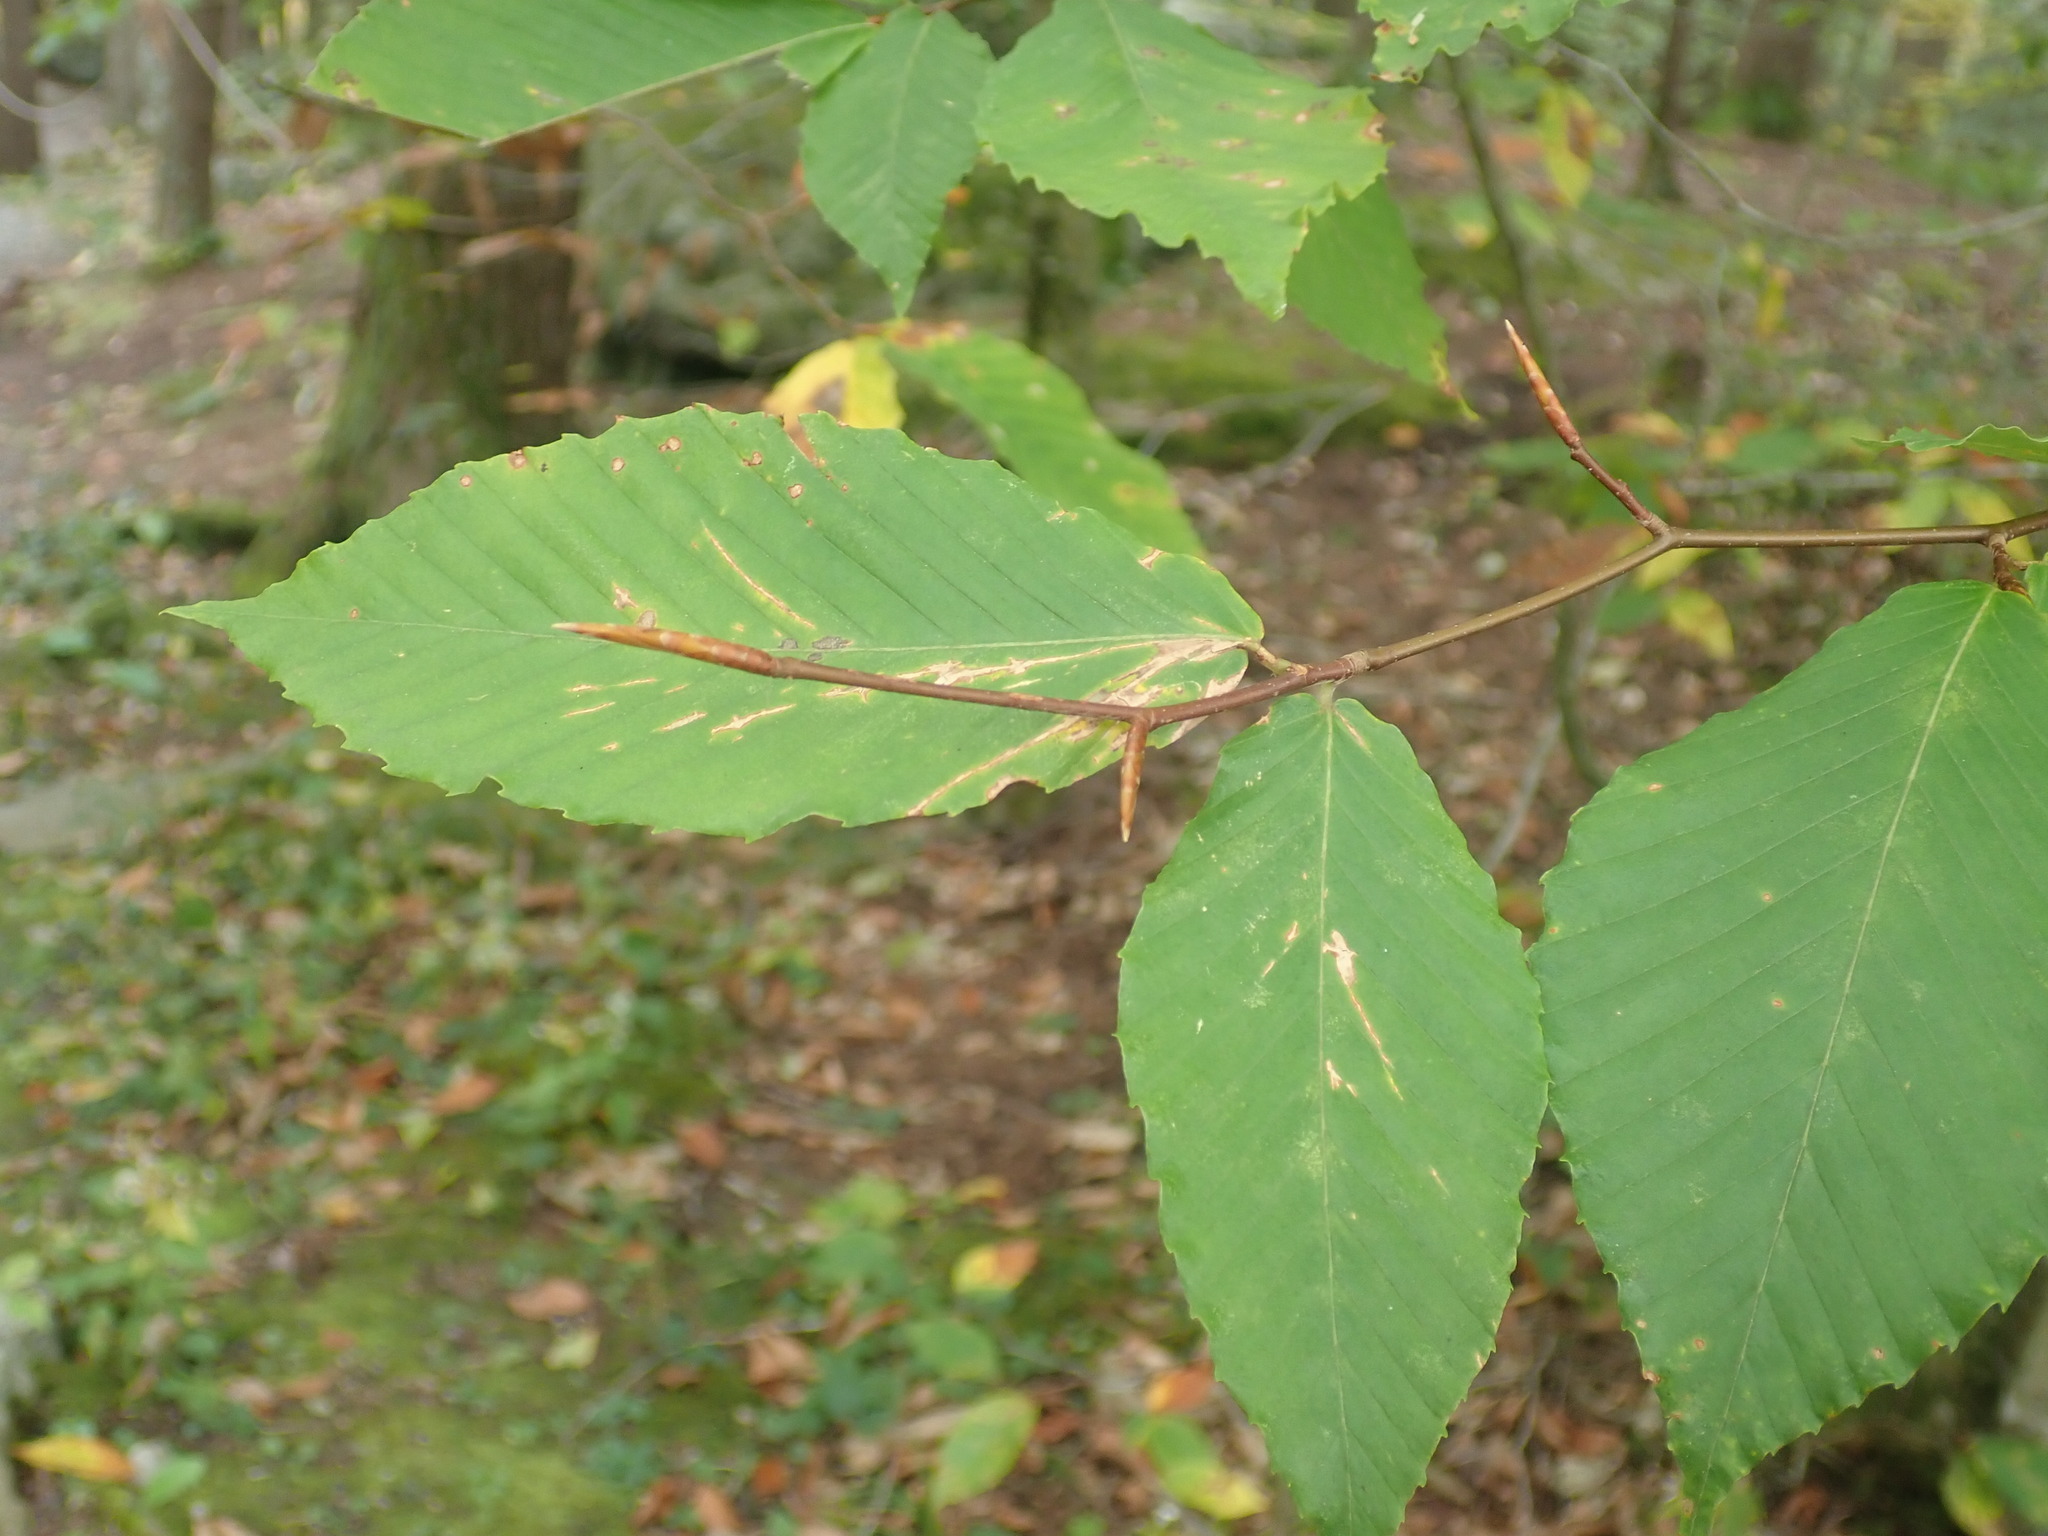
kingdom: Plantae
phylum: Tracheophyta
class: Magnoliopsida
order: Fagales
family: Fagaceae
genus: Fagus
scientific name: Fagus grandifolia
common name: American beech
